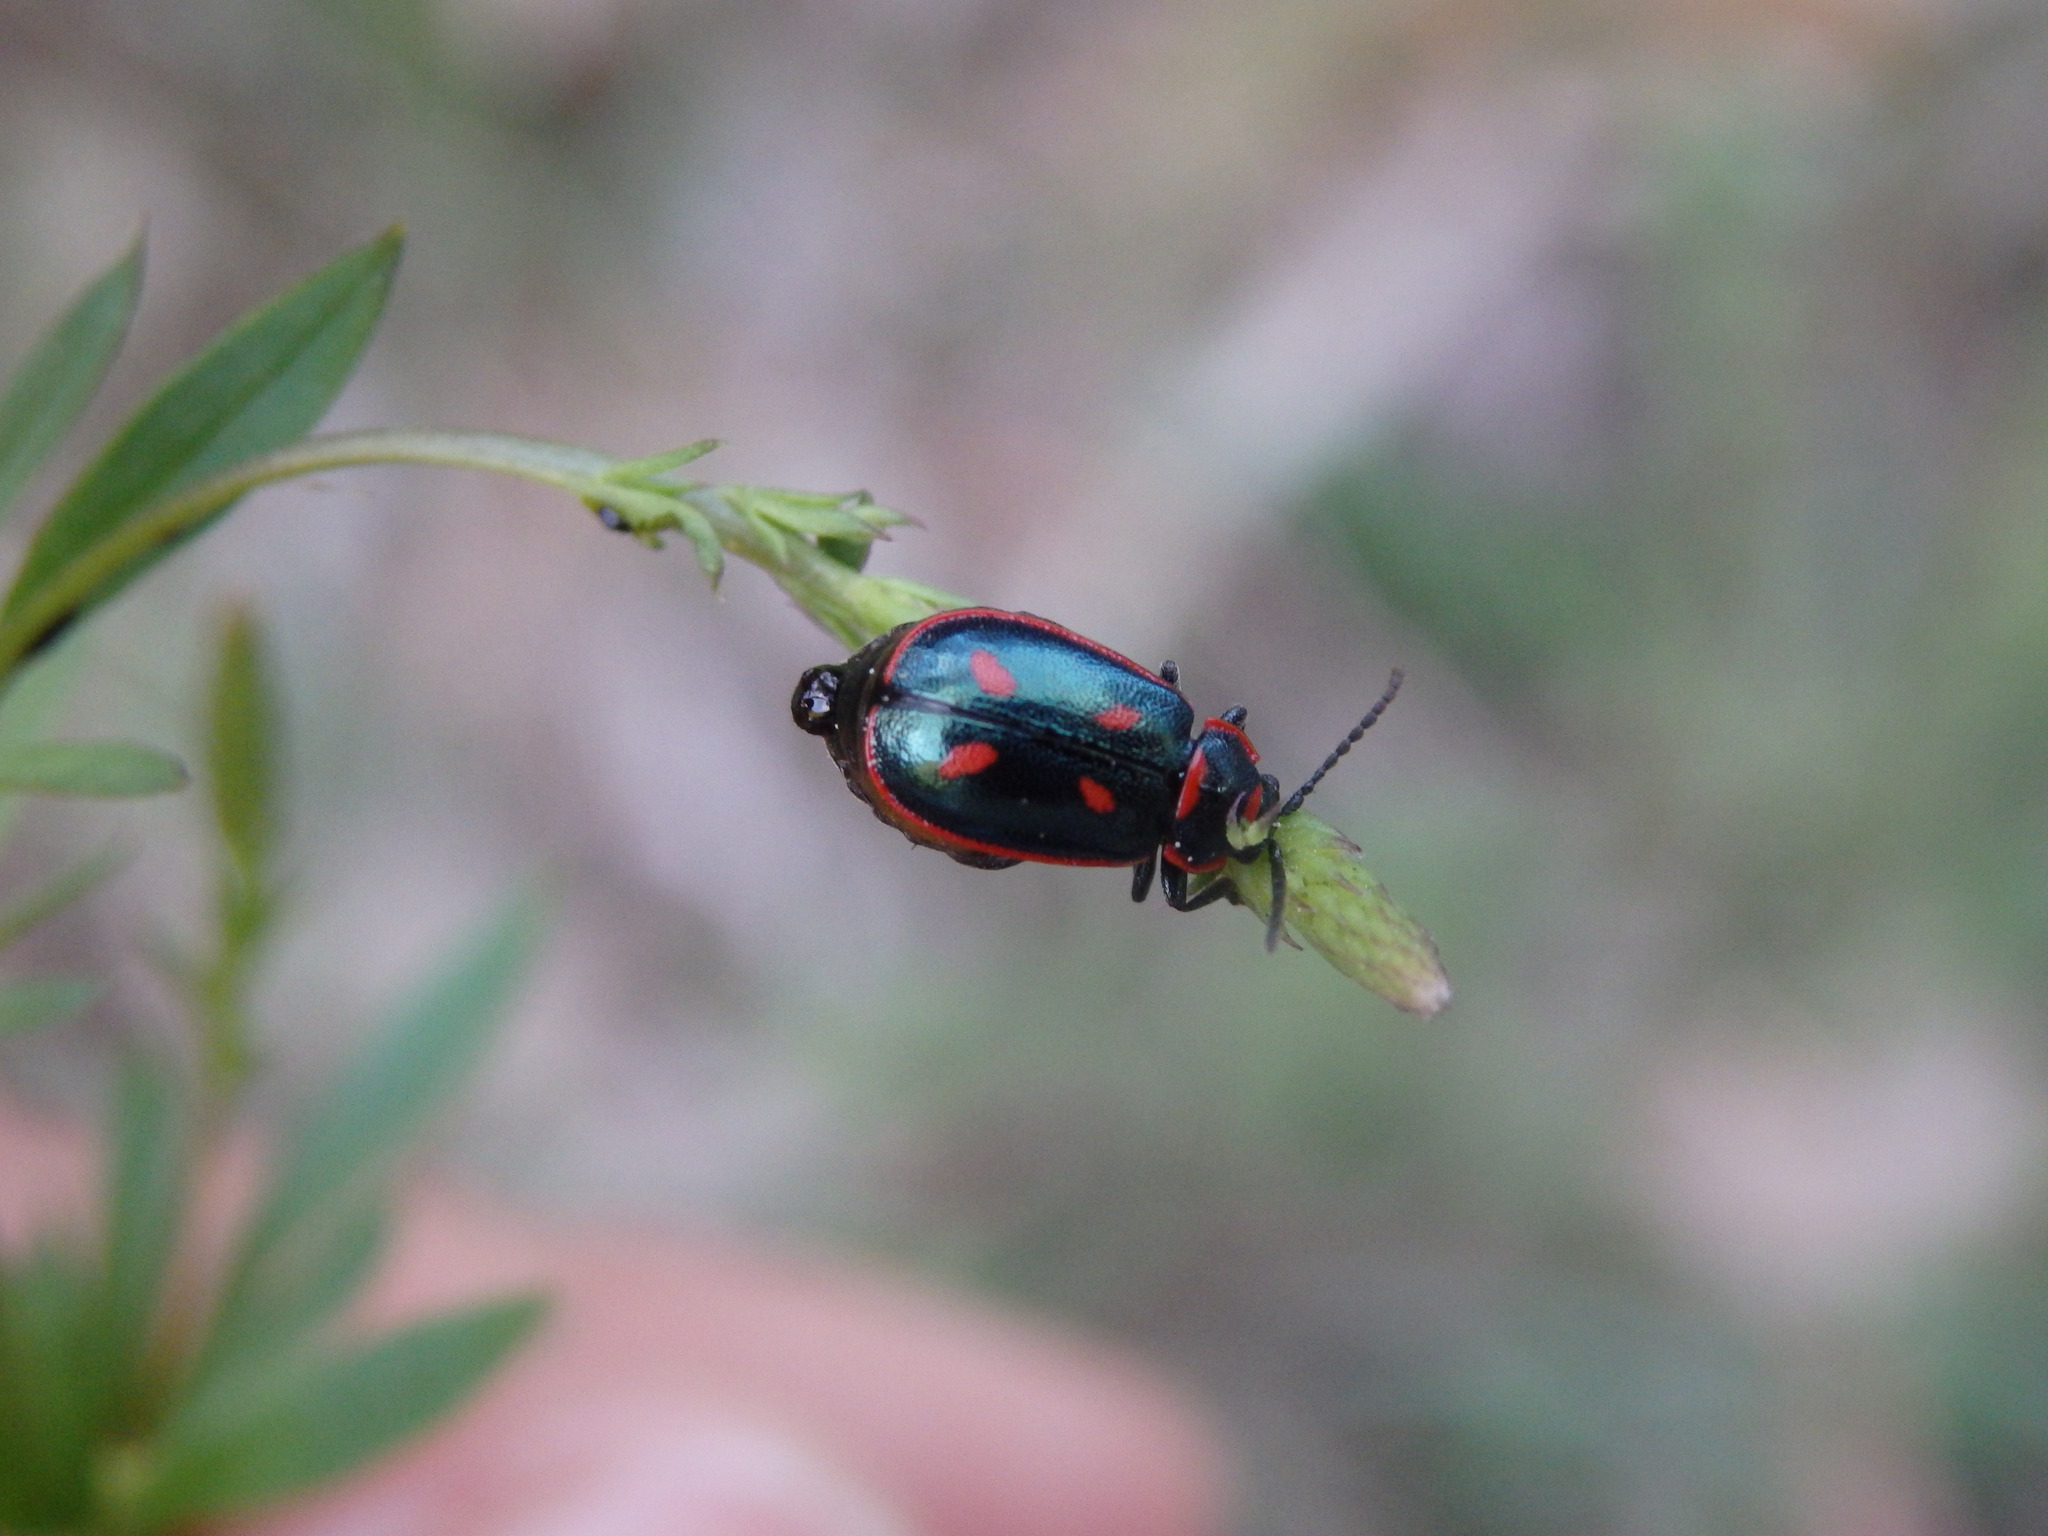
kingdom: Animalia
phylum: Arthropoda
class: Insecta
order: Coleoptera
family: Chrysomelidae
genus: Oedionychis
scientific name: Oedionychis cincta
